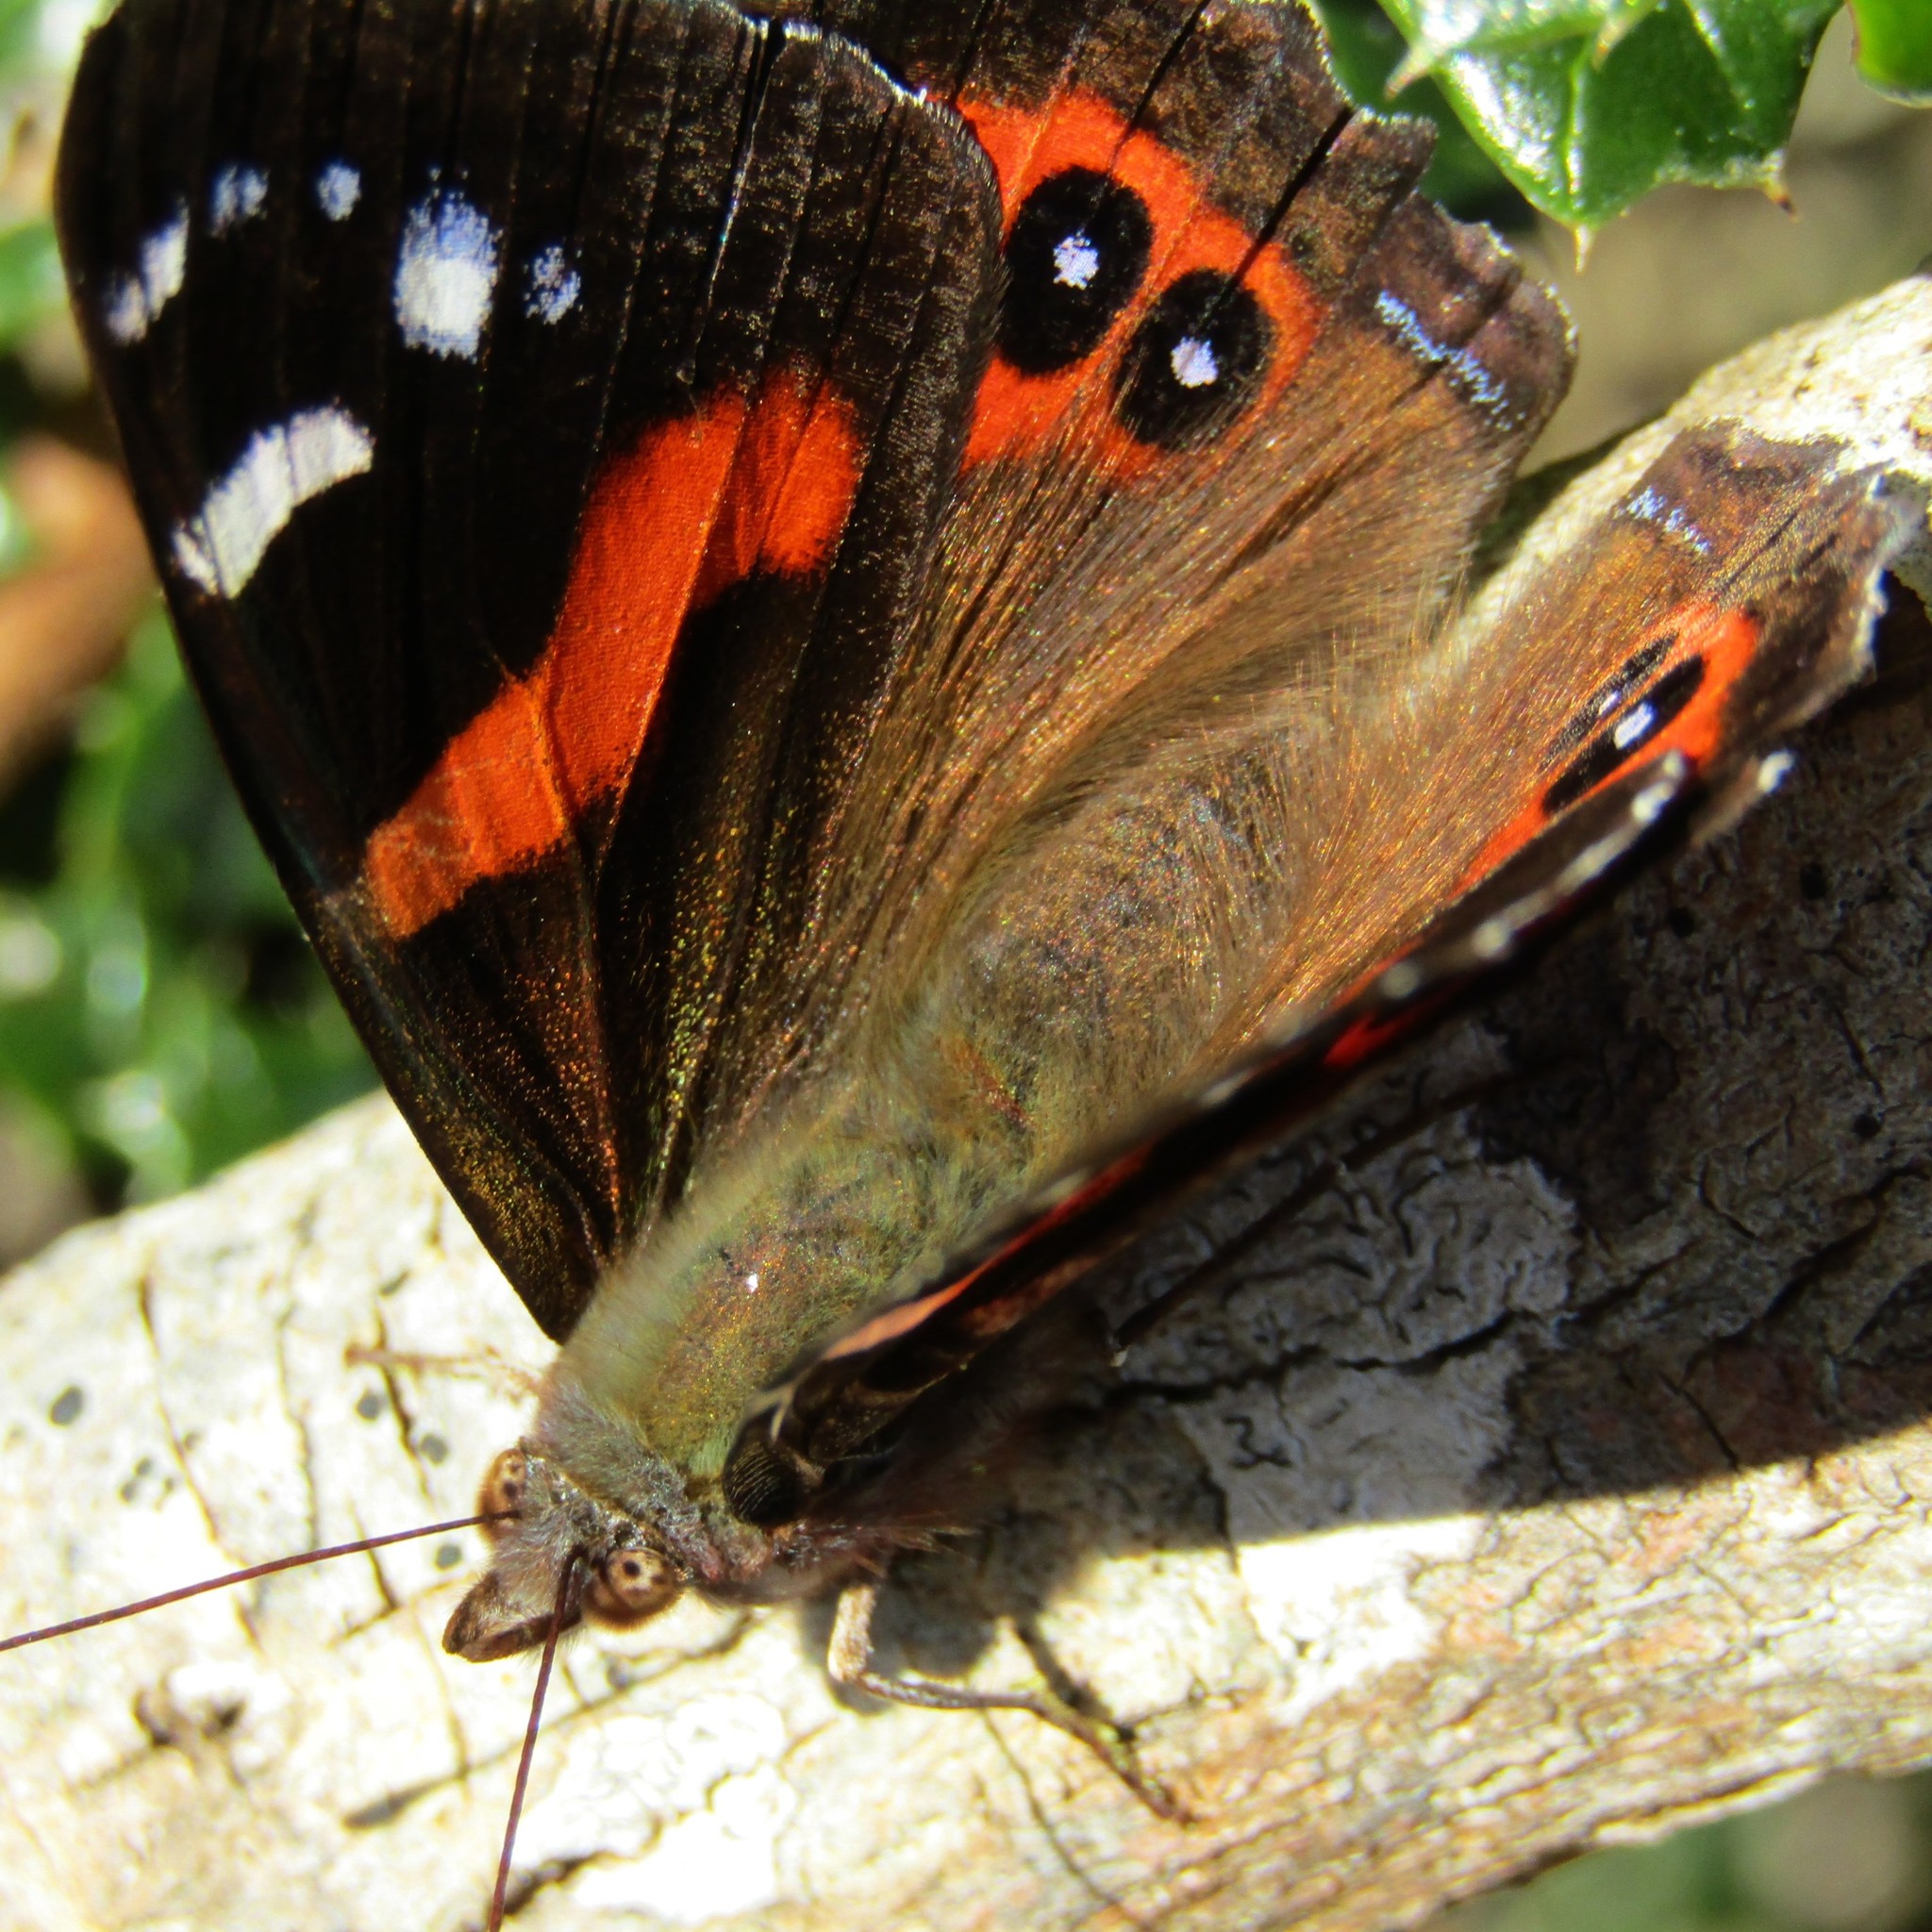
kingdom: Animalia
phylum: Arthropoda
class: Insecta
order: Lepidoptera
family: Nymphalidae
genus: Vanessa
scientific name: Vanessa gonerilla
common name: New zealand red admiral
